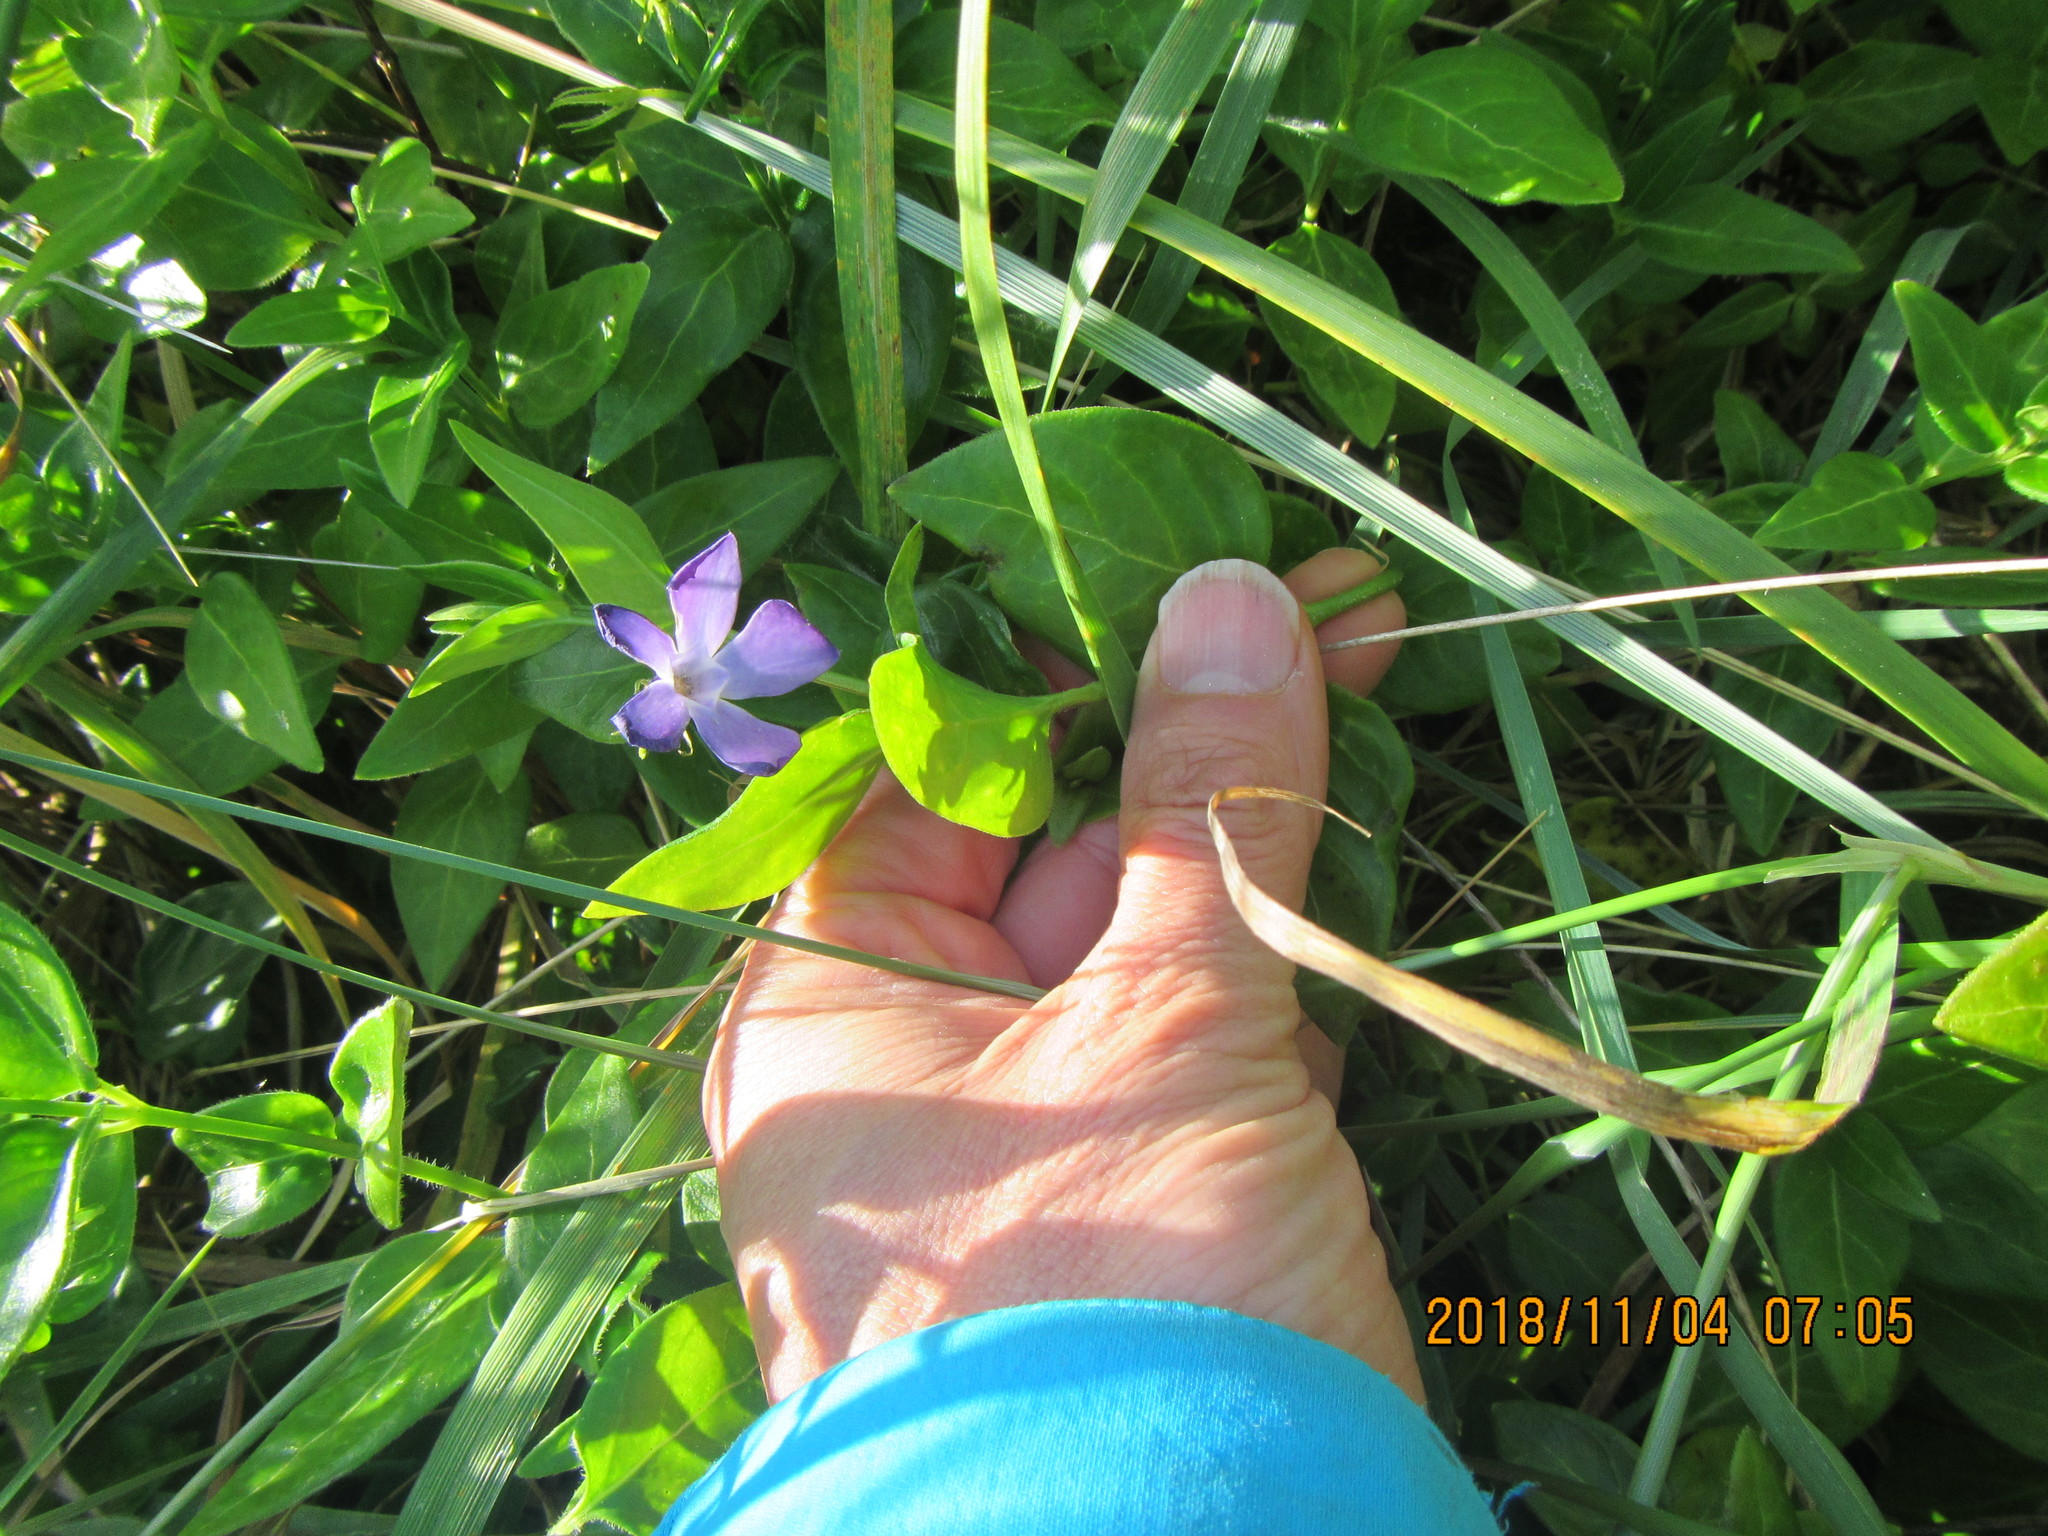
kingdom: Plantae
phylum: Tracheophyta
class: Magnoliopsida
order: Gentianales
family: Apocynaceae
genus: Vinca
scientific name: Vinca major
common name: Greater periwinkle
